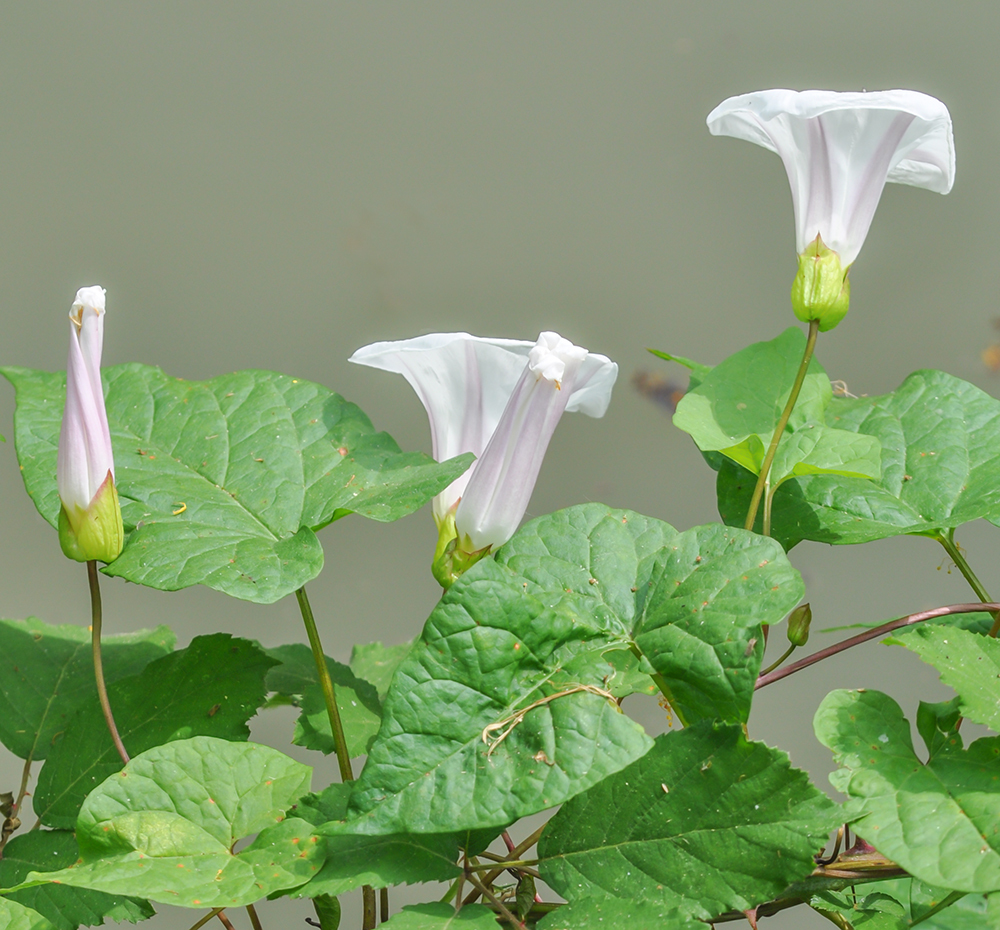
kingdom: Plantae
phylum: Tracheophyta
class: Magnoliopsida
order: Solanales
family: Convolvulaceae
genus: Calystegia
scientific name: Calystegia silvatica
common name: Large bindweed
